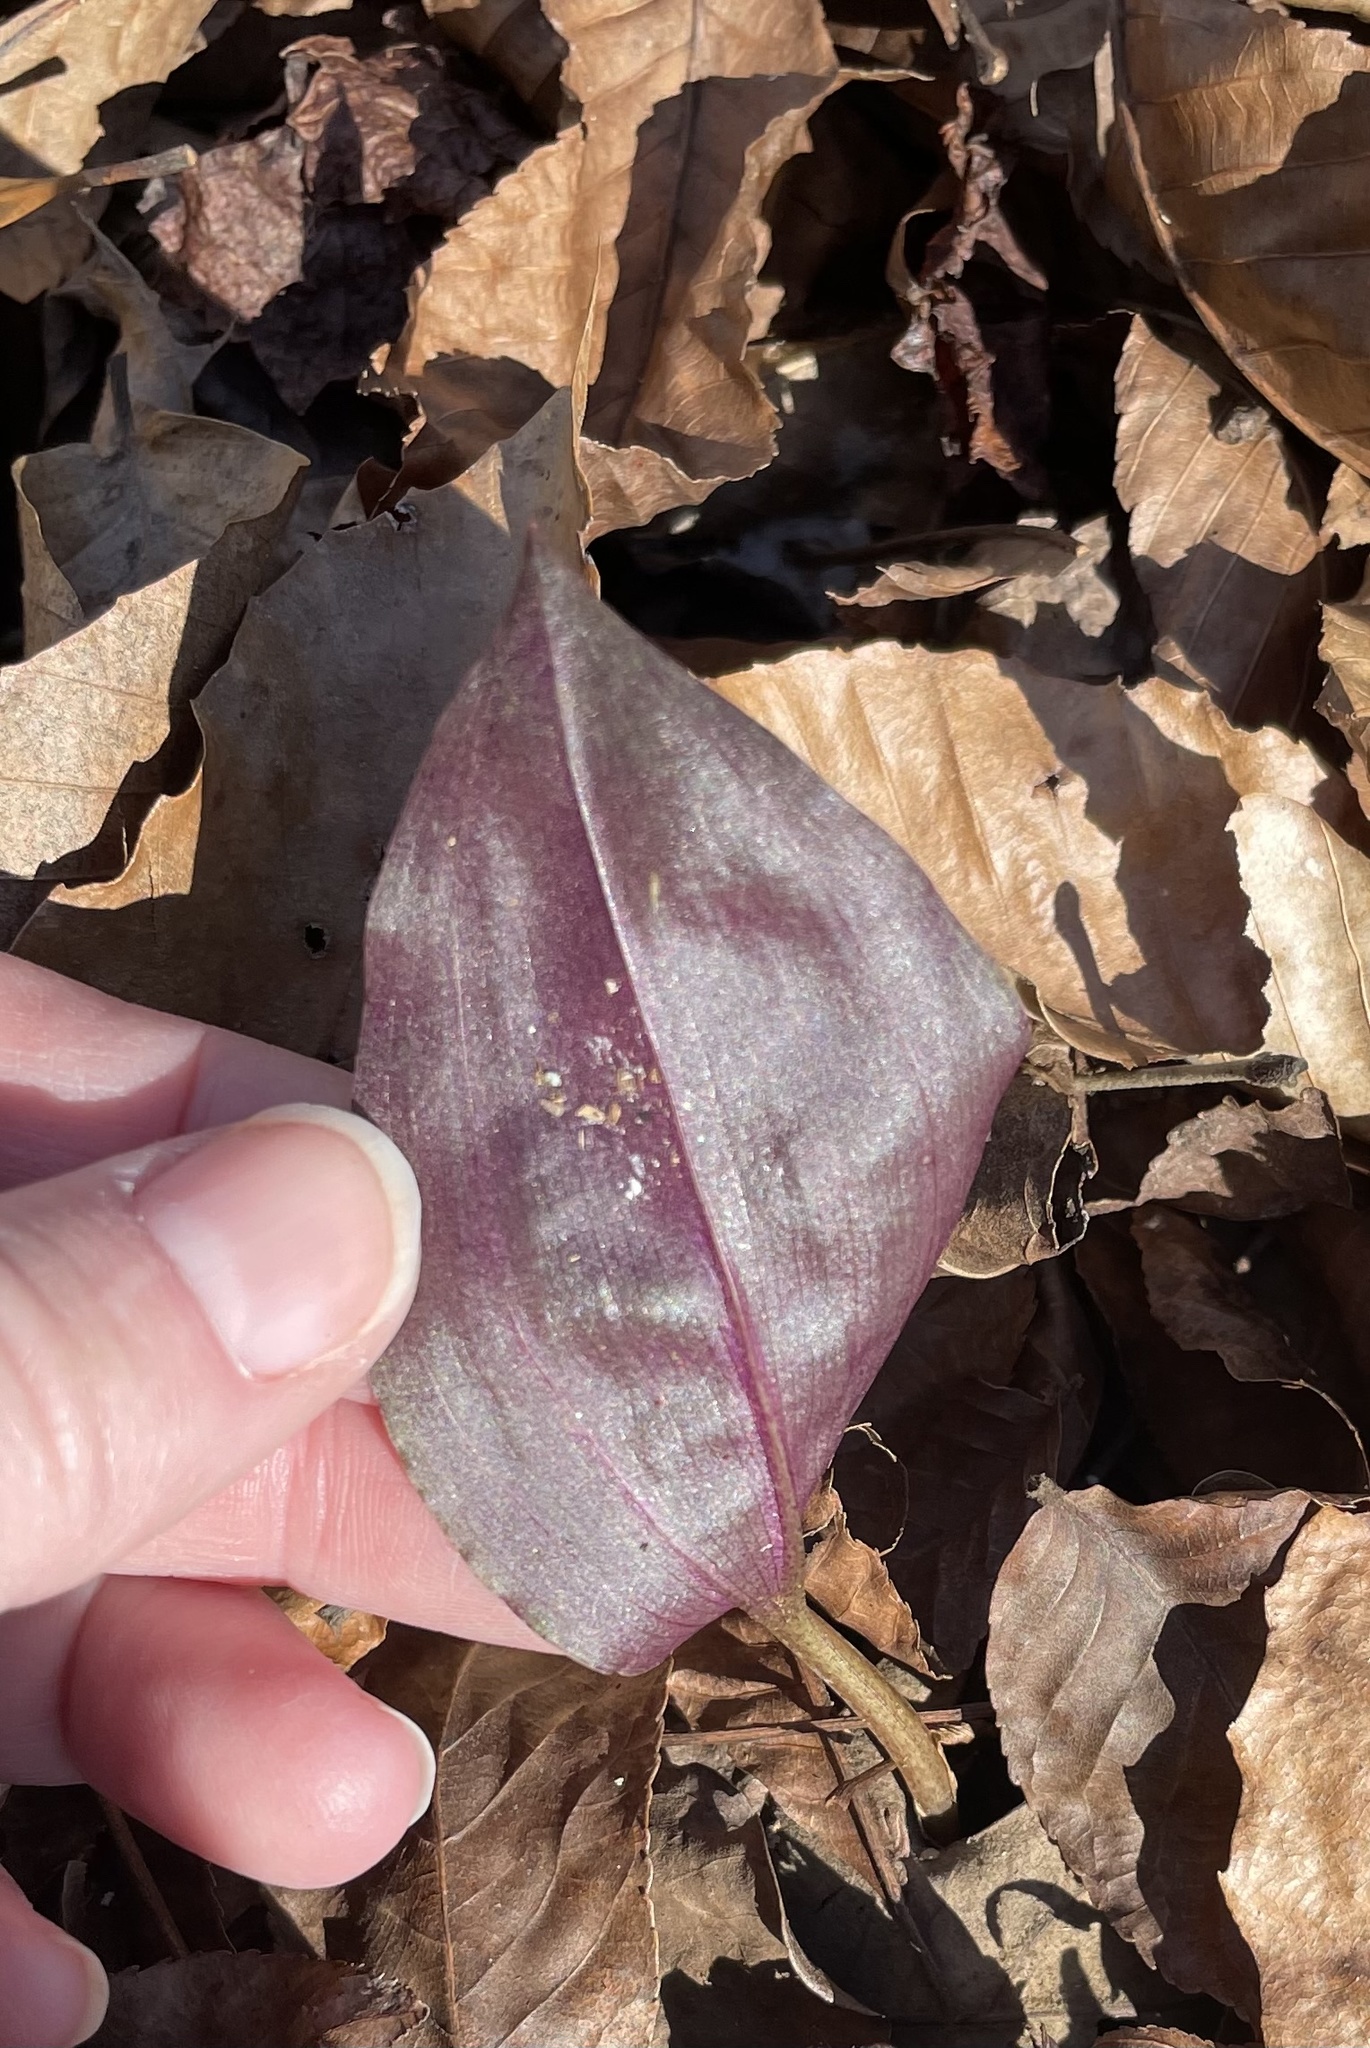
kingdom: Plantae
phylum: Tracheophyta
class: Liliopsida
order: Asparagales
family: Orchidaceae
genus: Tipularia
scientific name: Tipularia discolor
